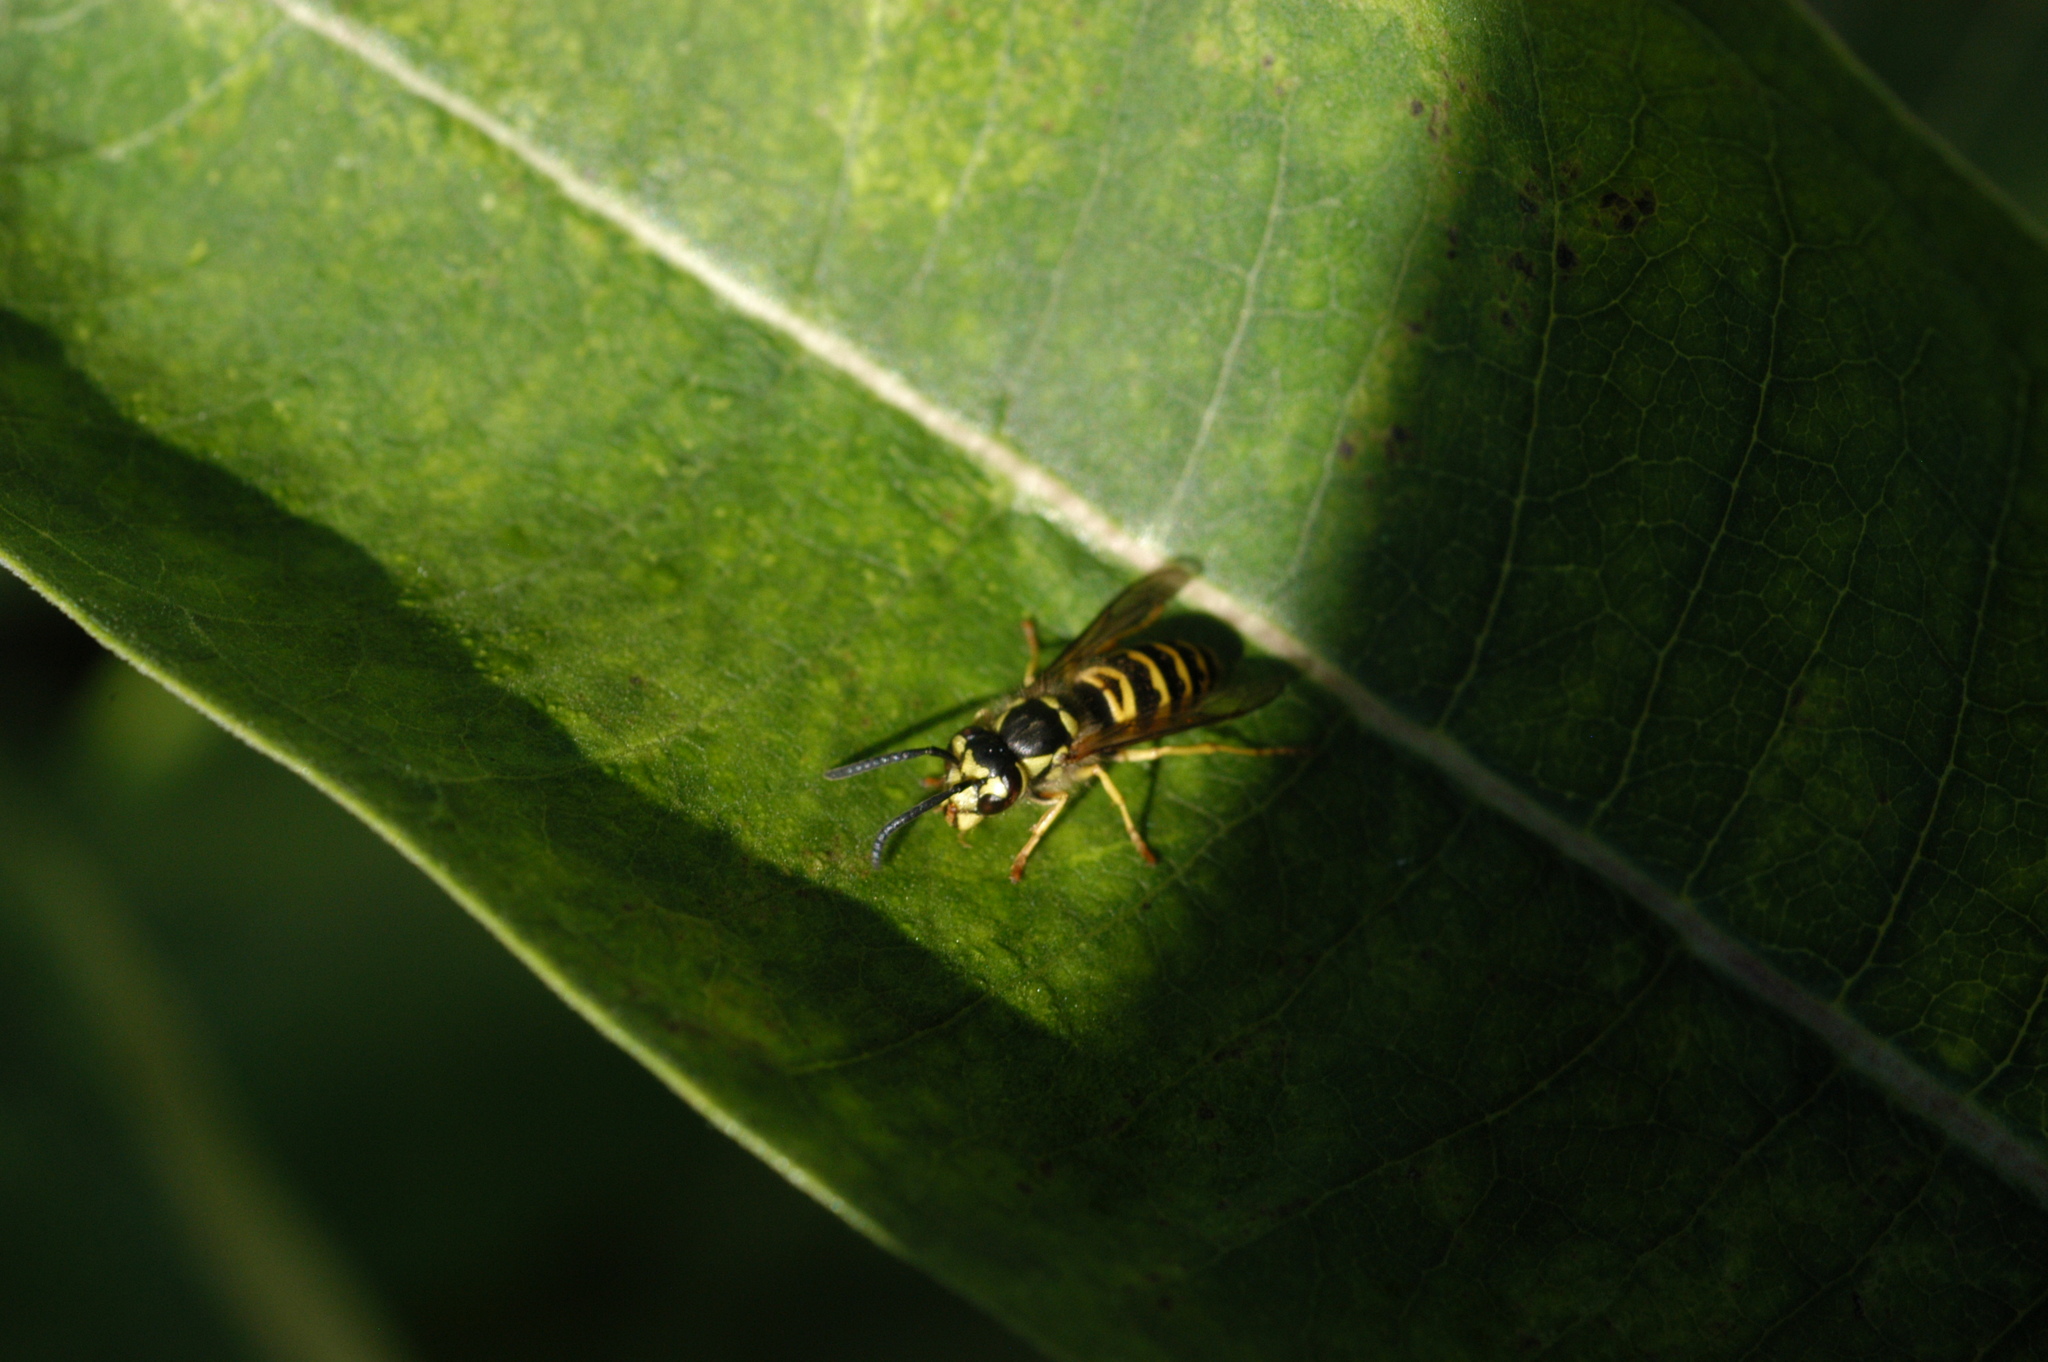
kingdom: Animalia
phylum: Arthropoda
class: Insecta
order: Hymenoptera
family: Vespidae
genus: Vespula
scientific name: Vespula maculifrons
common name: Eastern yellowjacket
